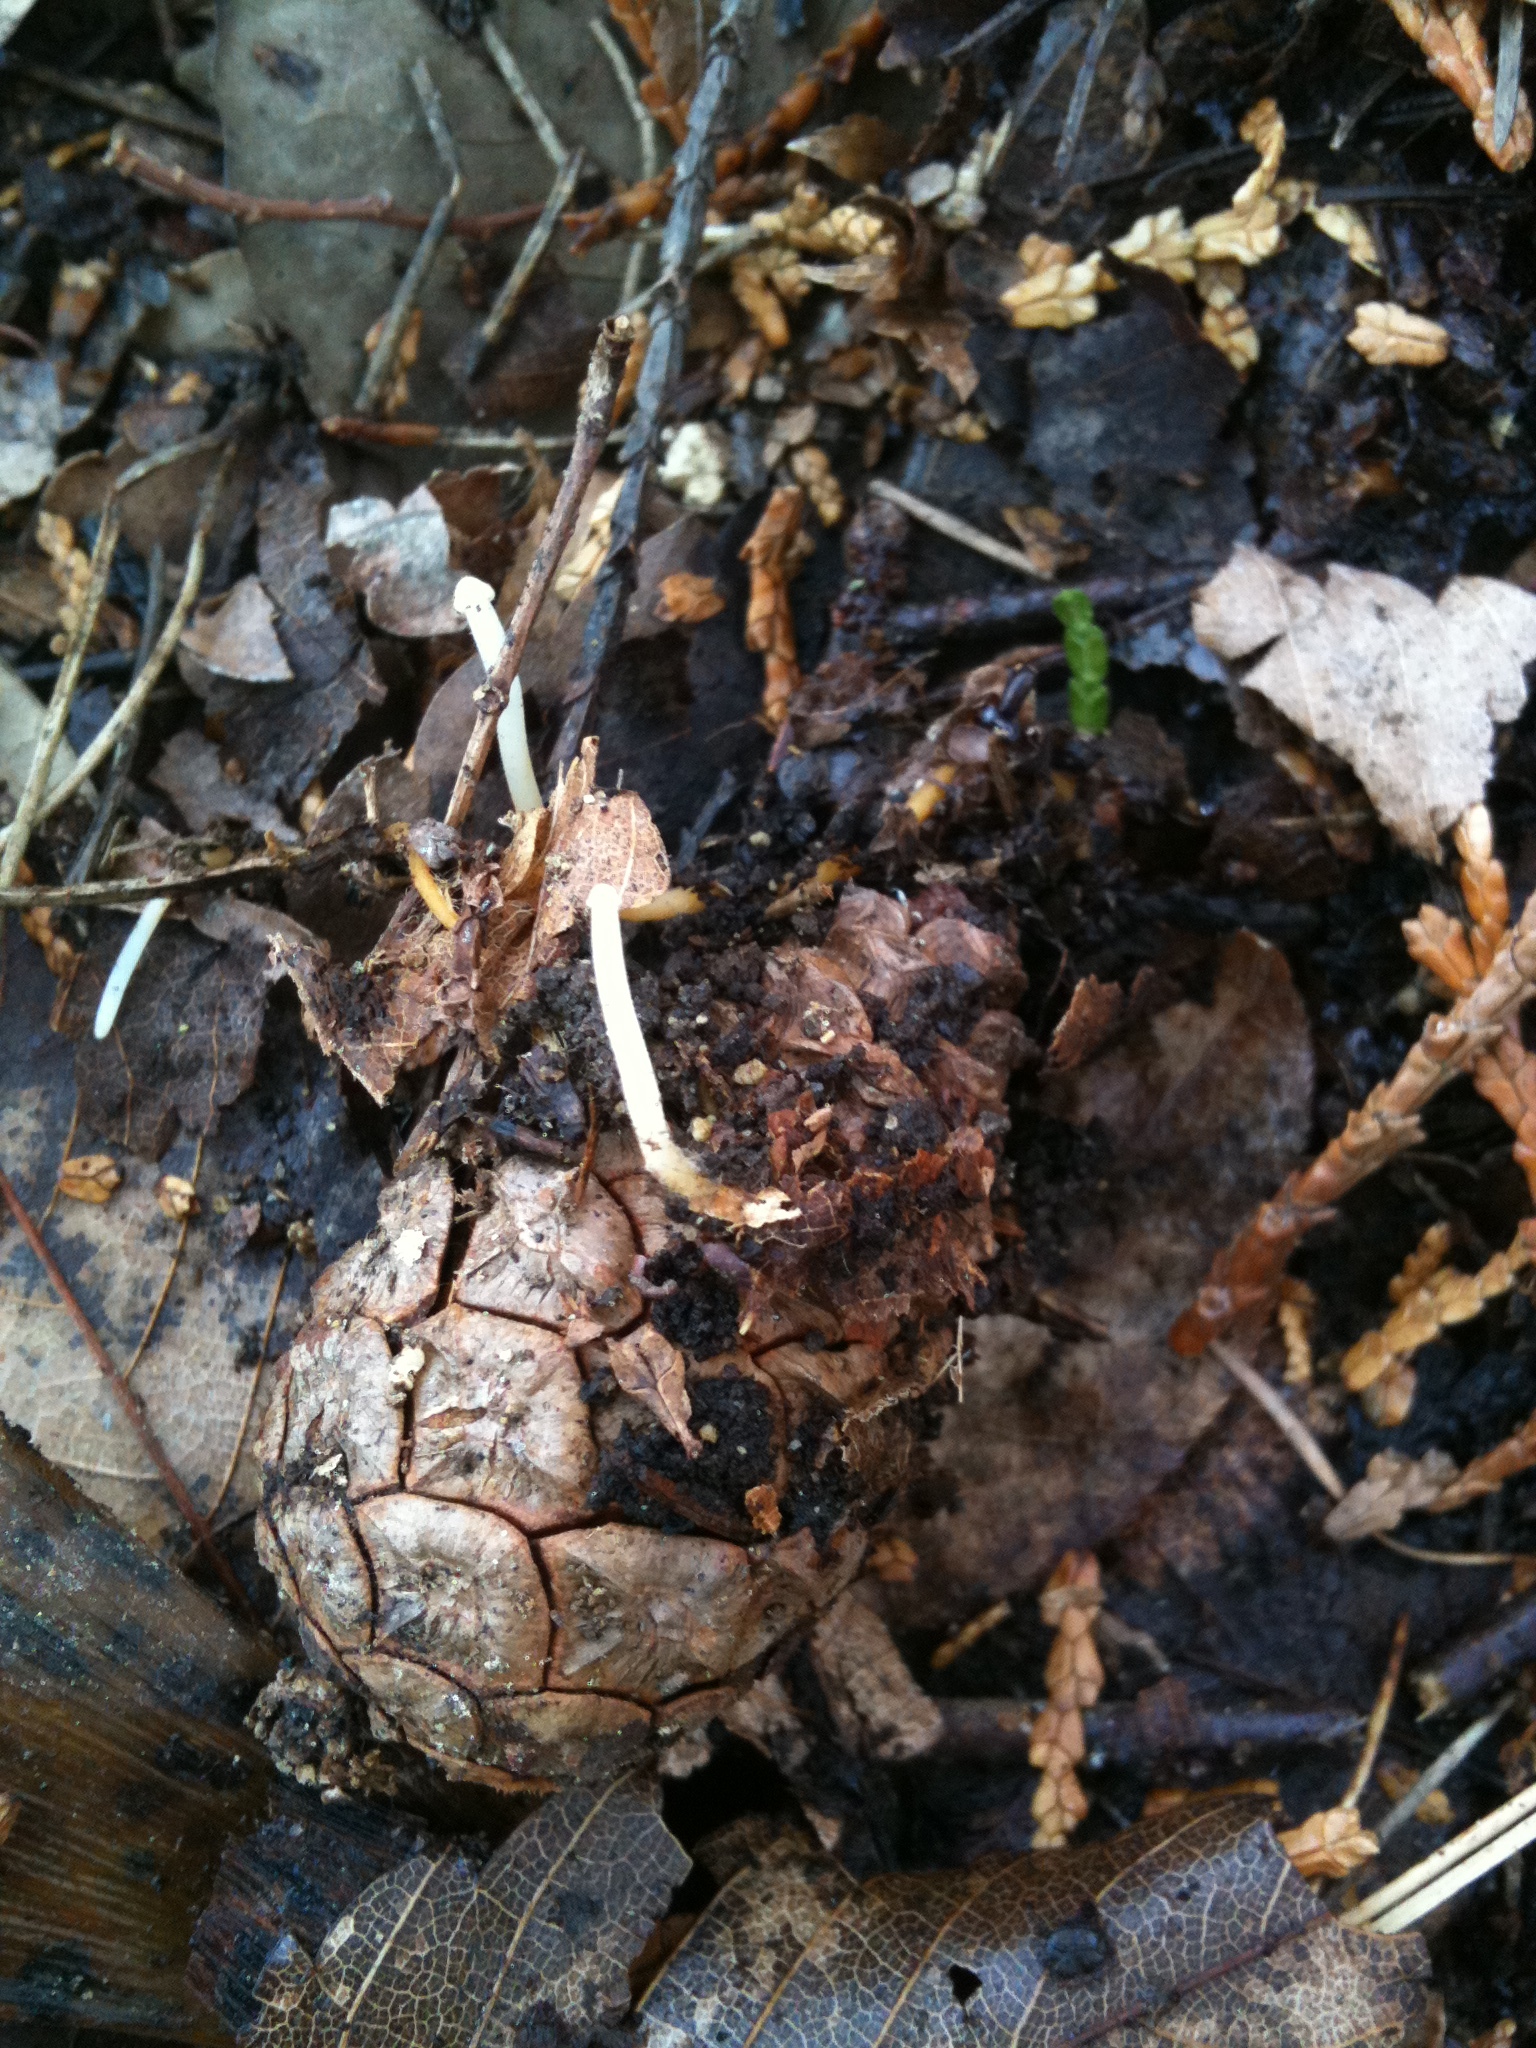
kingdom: Fungi
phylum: Basidiomycota
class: Agaricomycetes
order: Agaricales
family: Physalacriaceae
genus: Strobilurus
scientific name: Strobilurus stephanocystis
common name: Russian conecap
